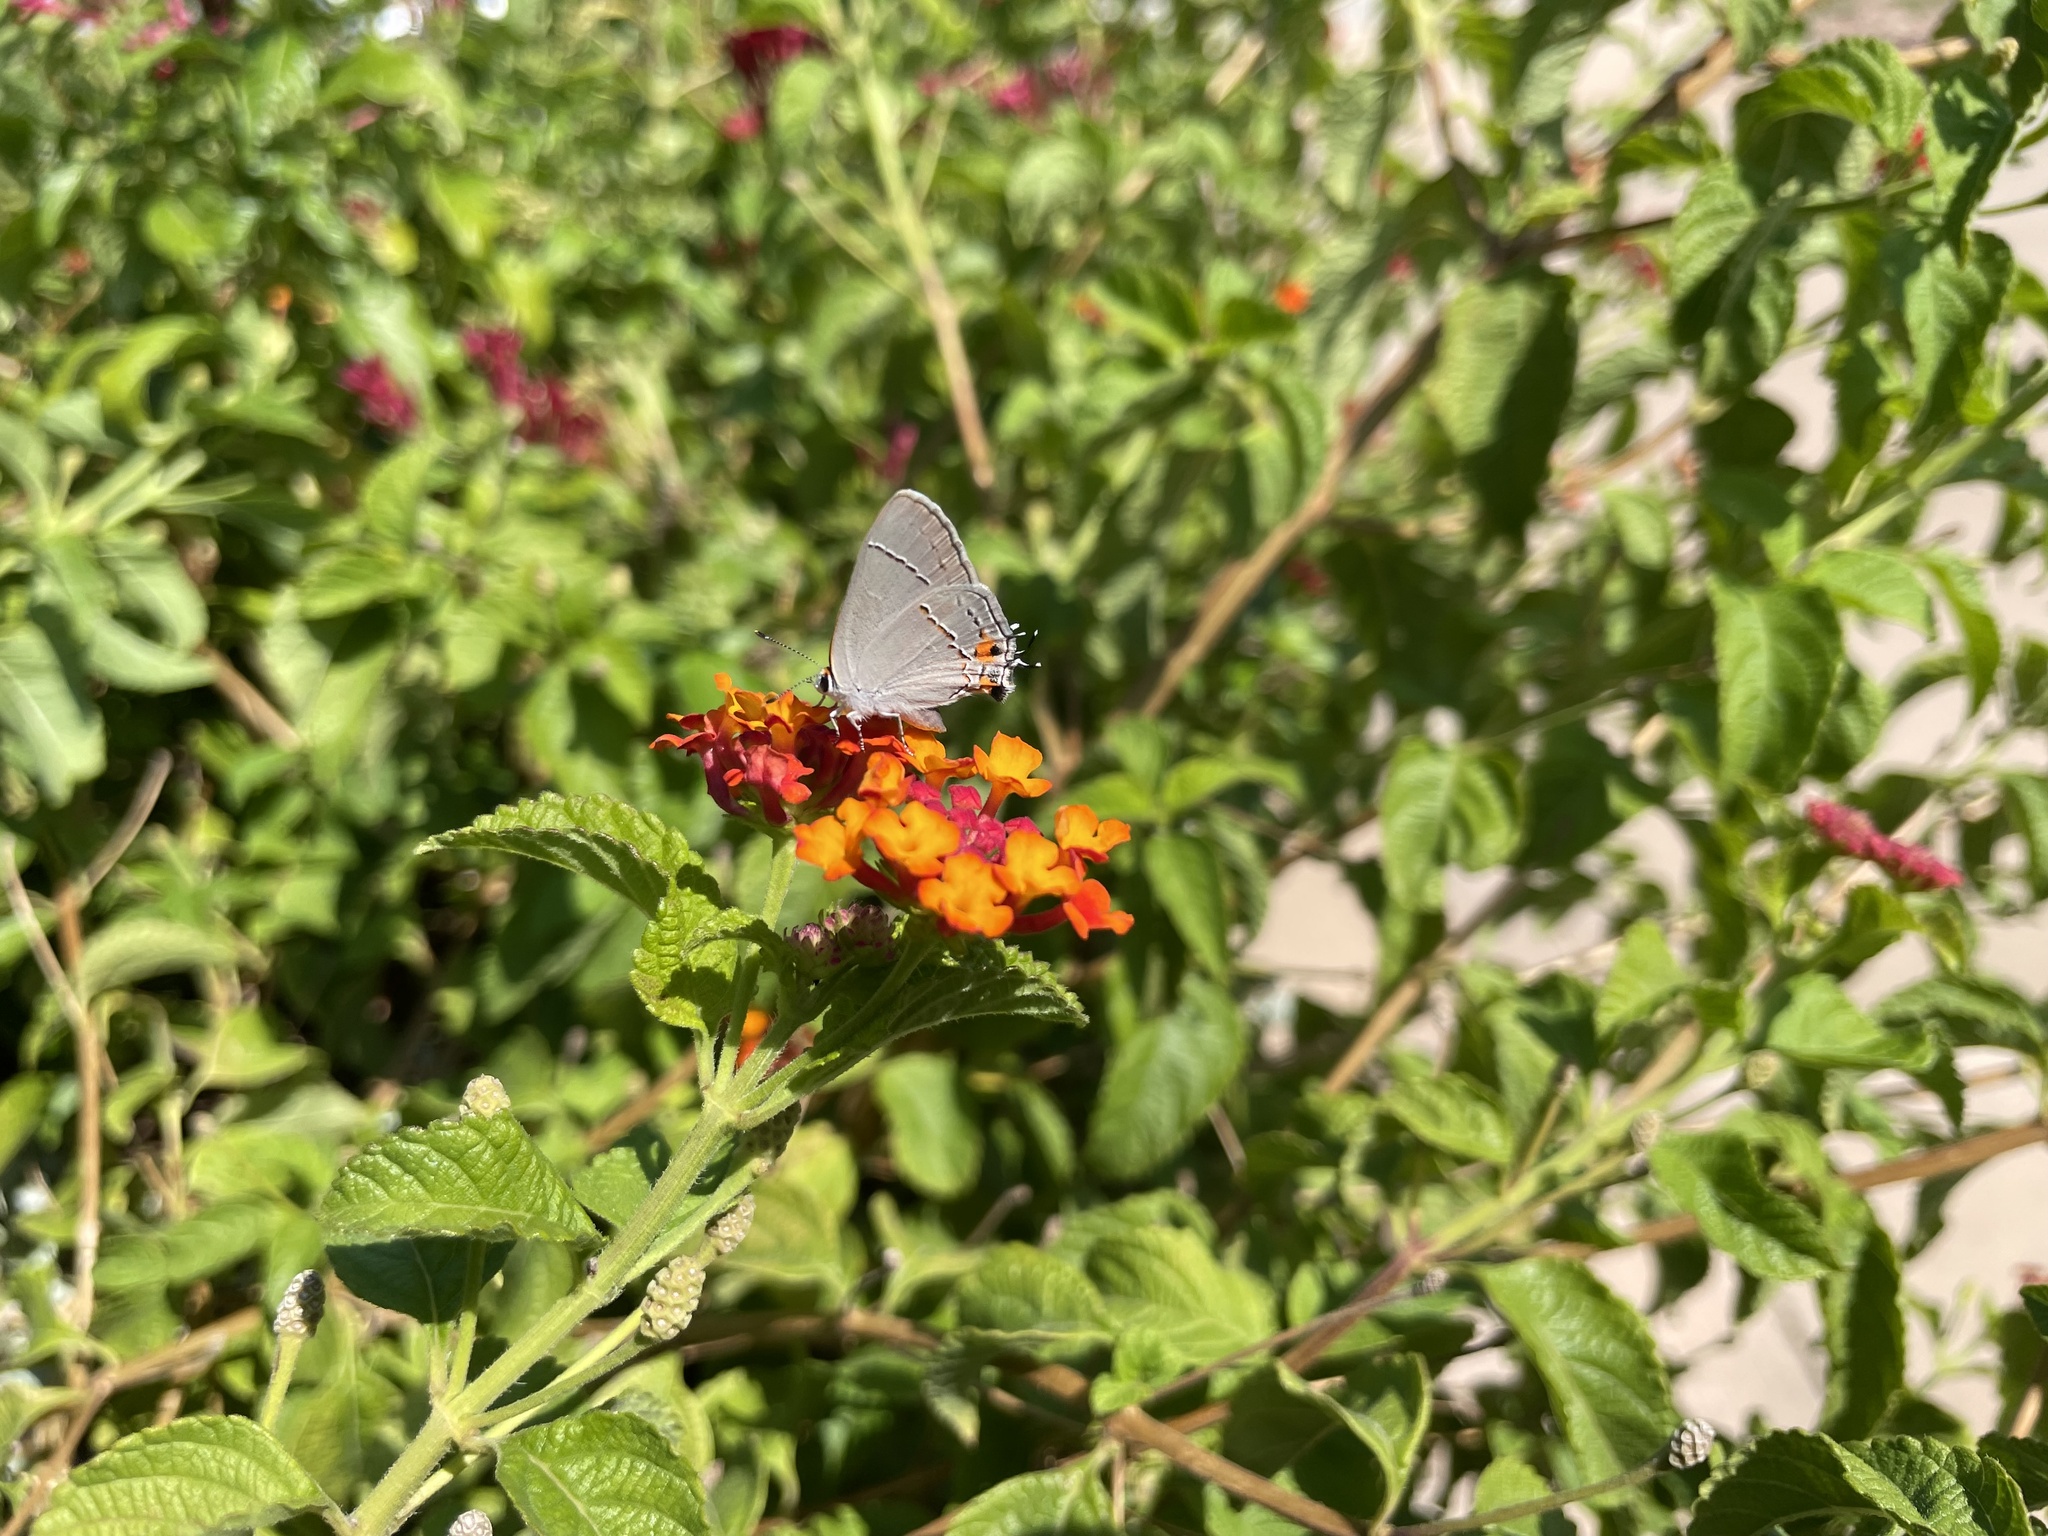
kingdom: Animalia
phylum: Arthropoda
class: Insecta
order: Lepidoptera
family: Lycaenidae
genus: Strymon
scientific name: Strymon melinus
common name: Gray hairstreak
